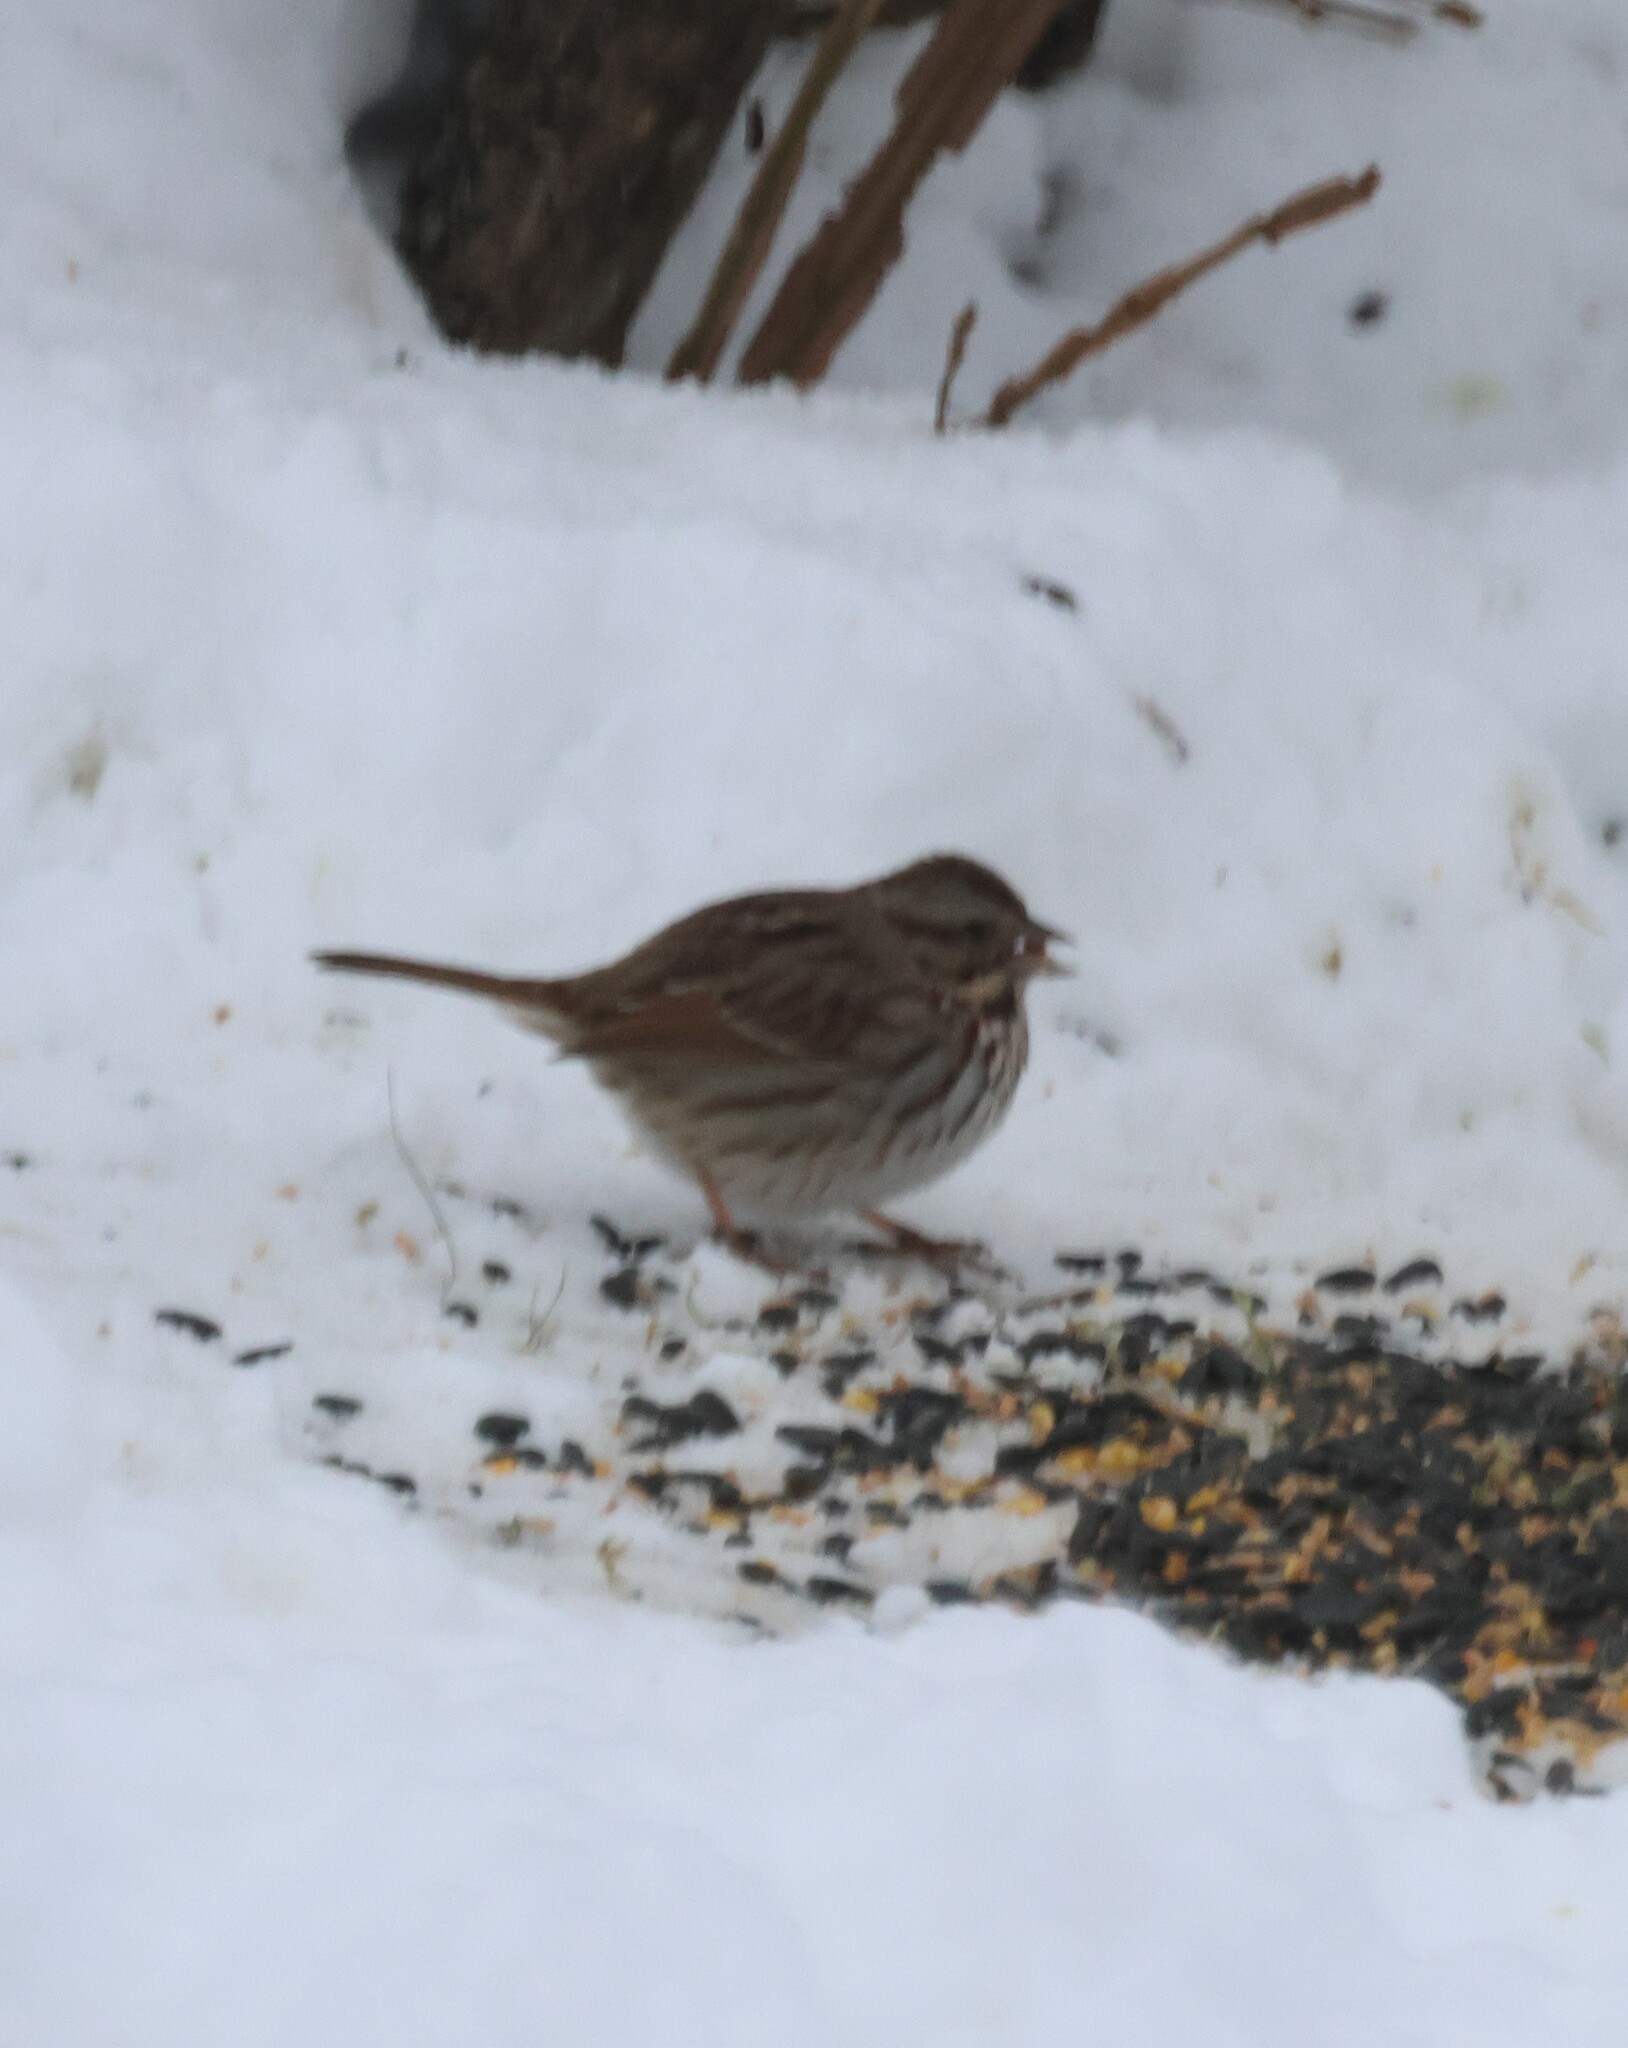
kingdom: Animalia
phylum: Chordata
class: Aves
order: Passeriformes
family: Passerellidae
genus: Melospiza
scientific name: Melospiza melodia
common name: Song sparrow
